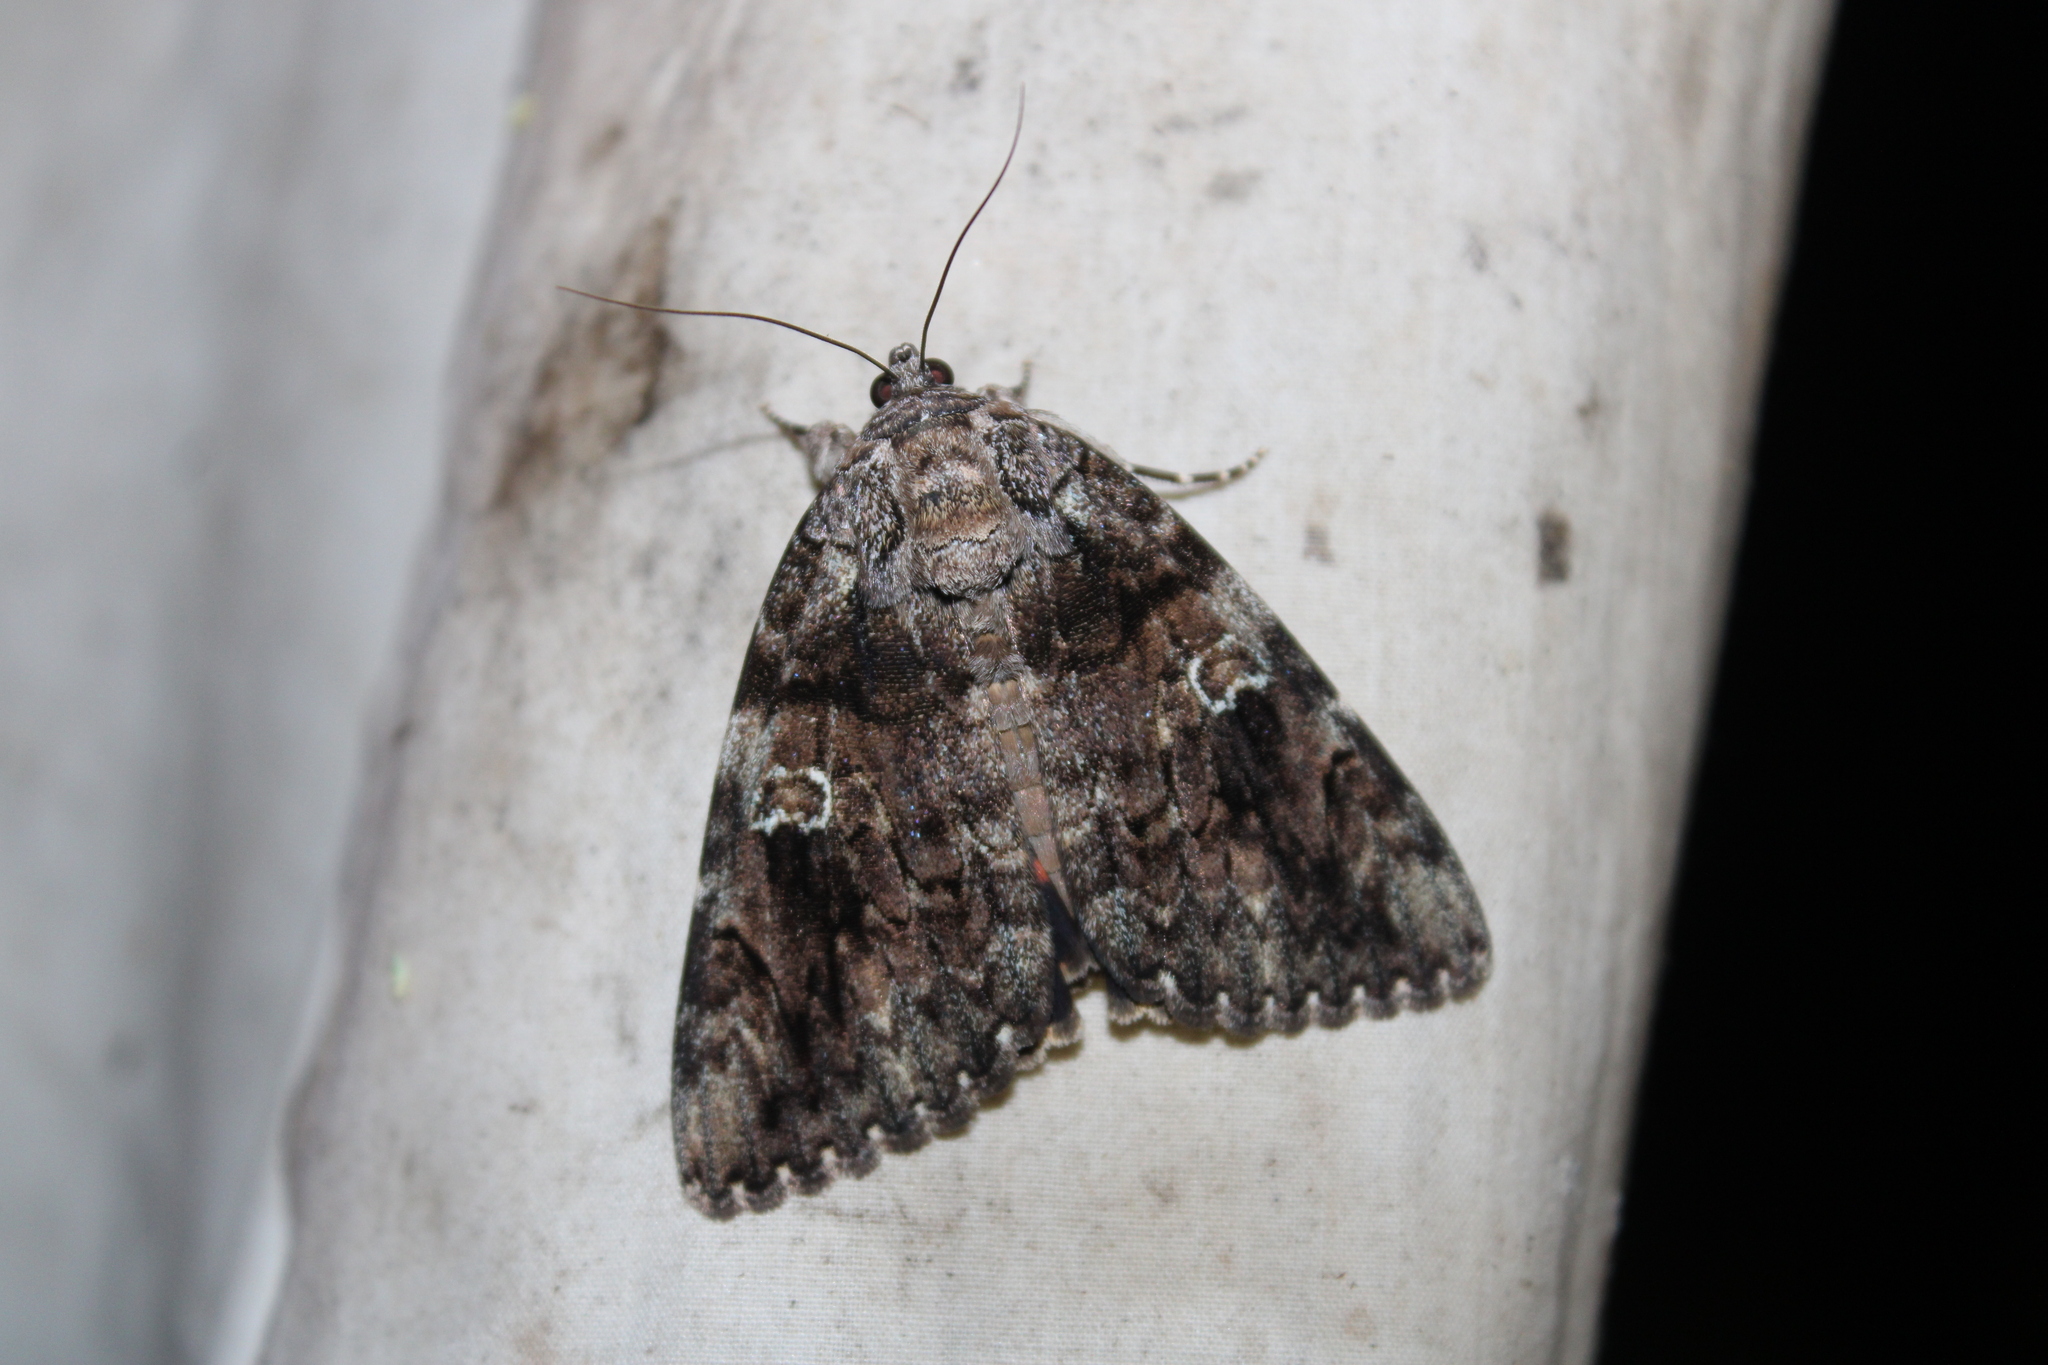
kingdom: Animalia
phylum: Arthropoda
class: Insecta
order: Lepidoptera
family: Erebidae
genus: Catocala
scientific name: Catocala ilia
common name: Ilia underwing
